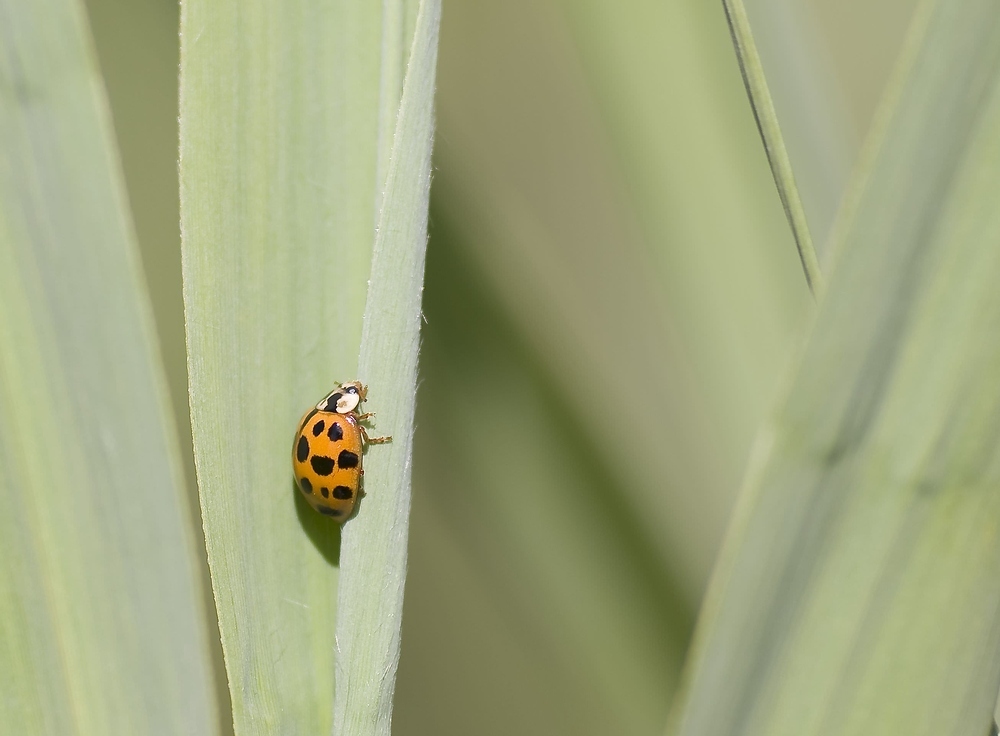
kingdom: Animalia
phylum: Arthropoda
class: Insecta
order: Coleoptera
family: Coccinellidae
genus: Harmonia
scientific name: Harmonia axyridis
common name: Harlequin ladybird
